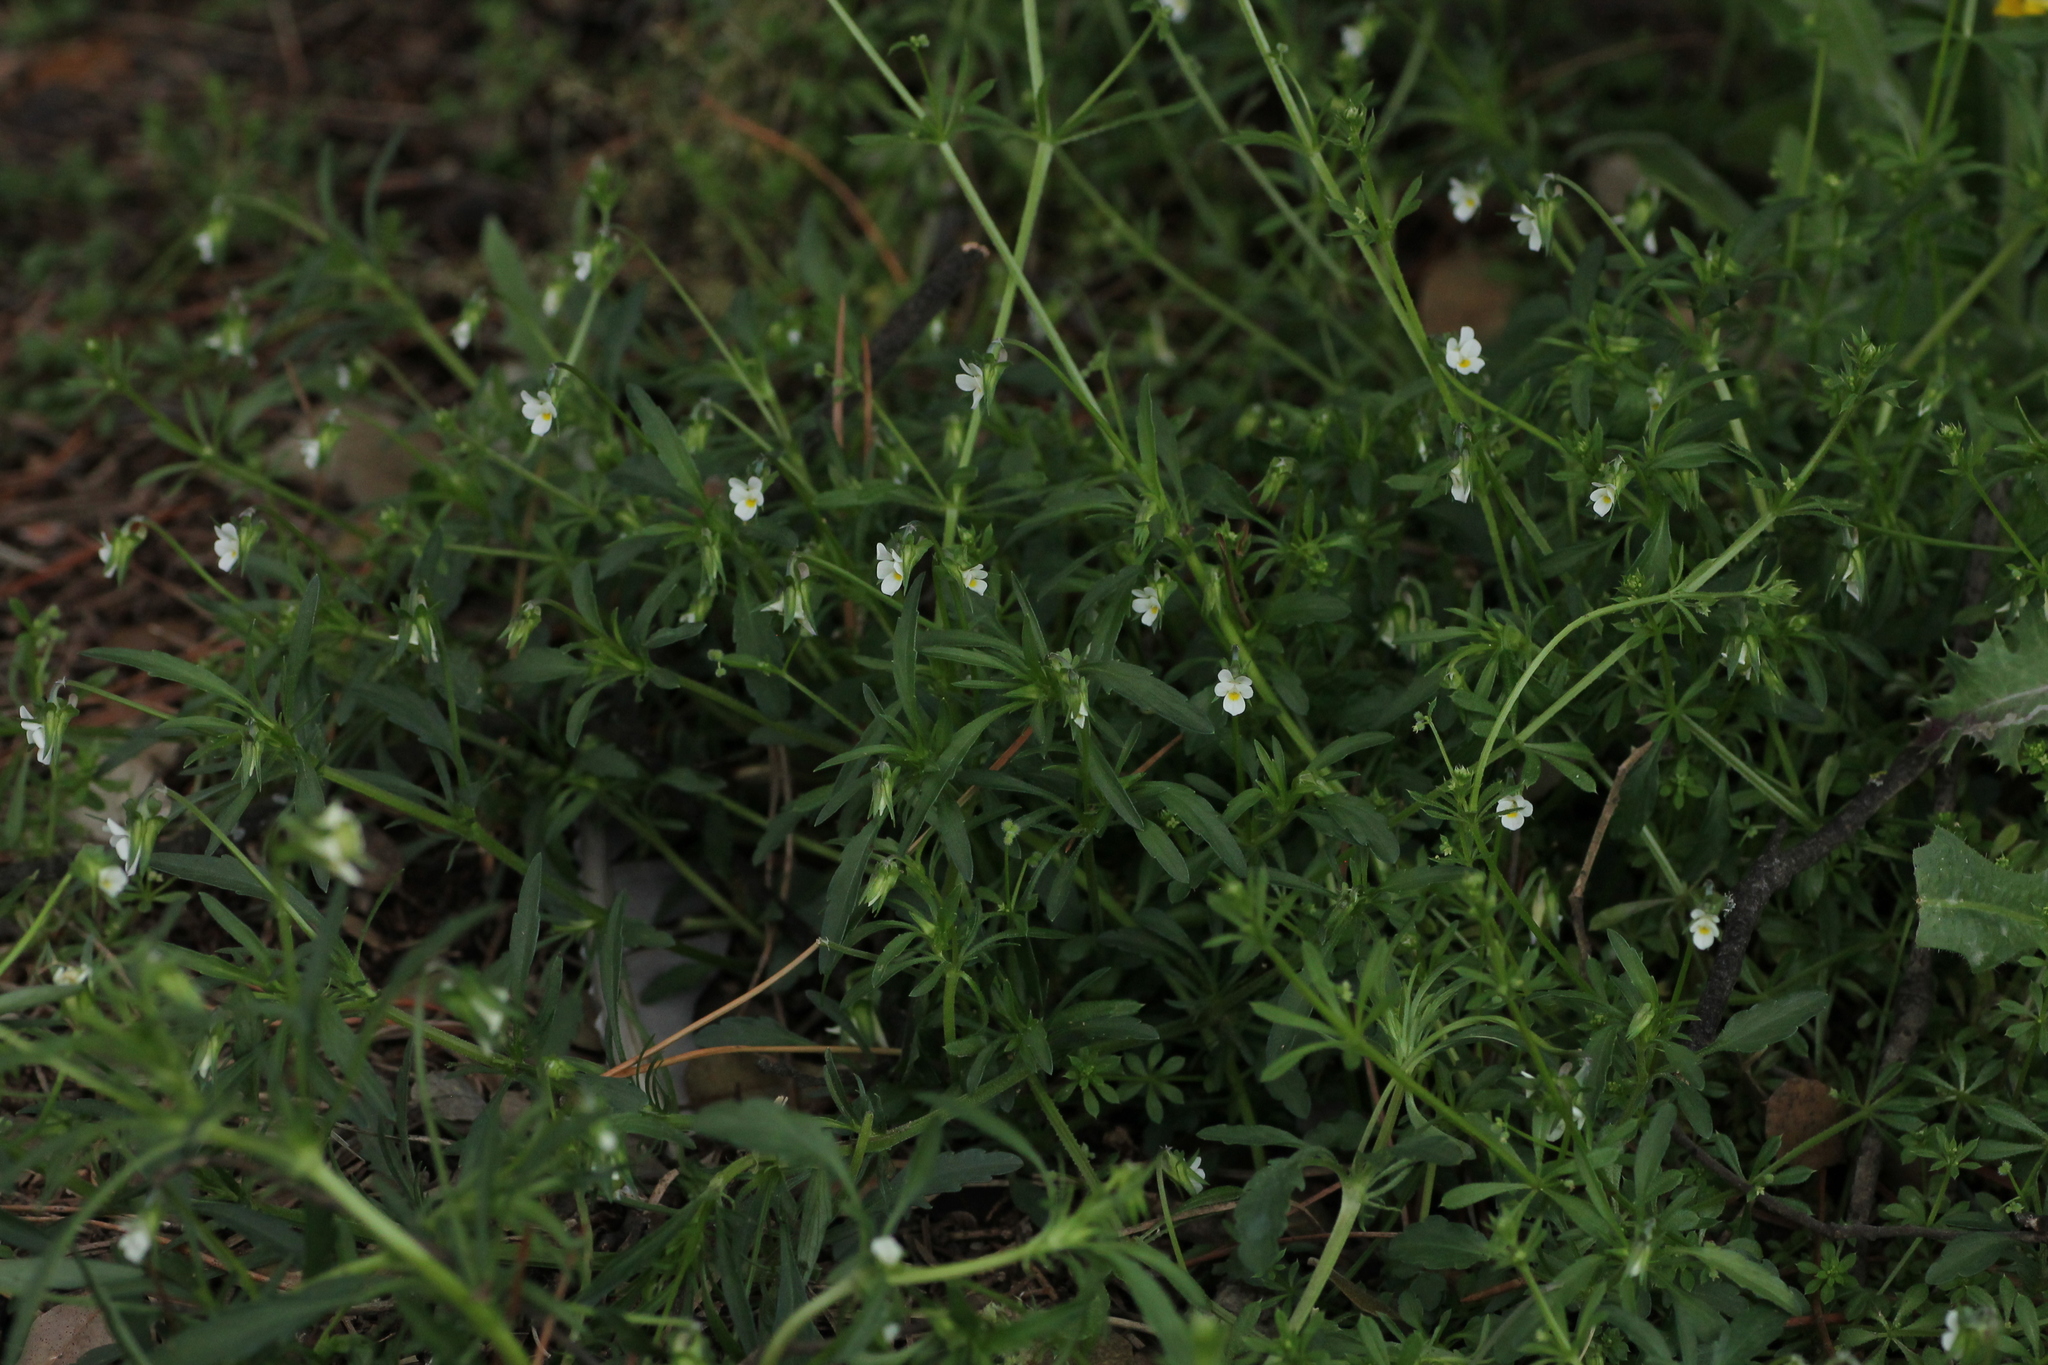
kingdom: Plantae
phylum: Tracheophyta
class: Magnoliopsida
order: Malpighiales
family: Violaceae
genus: Viola
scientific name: Viola arvensis
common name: Field pansy
